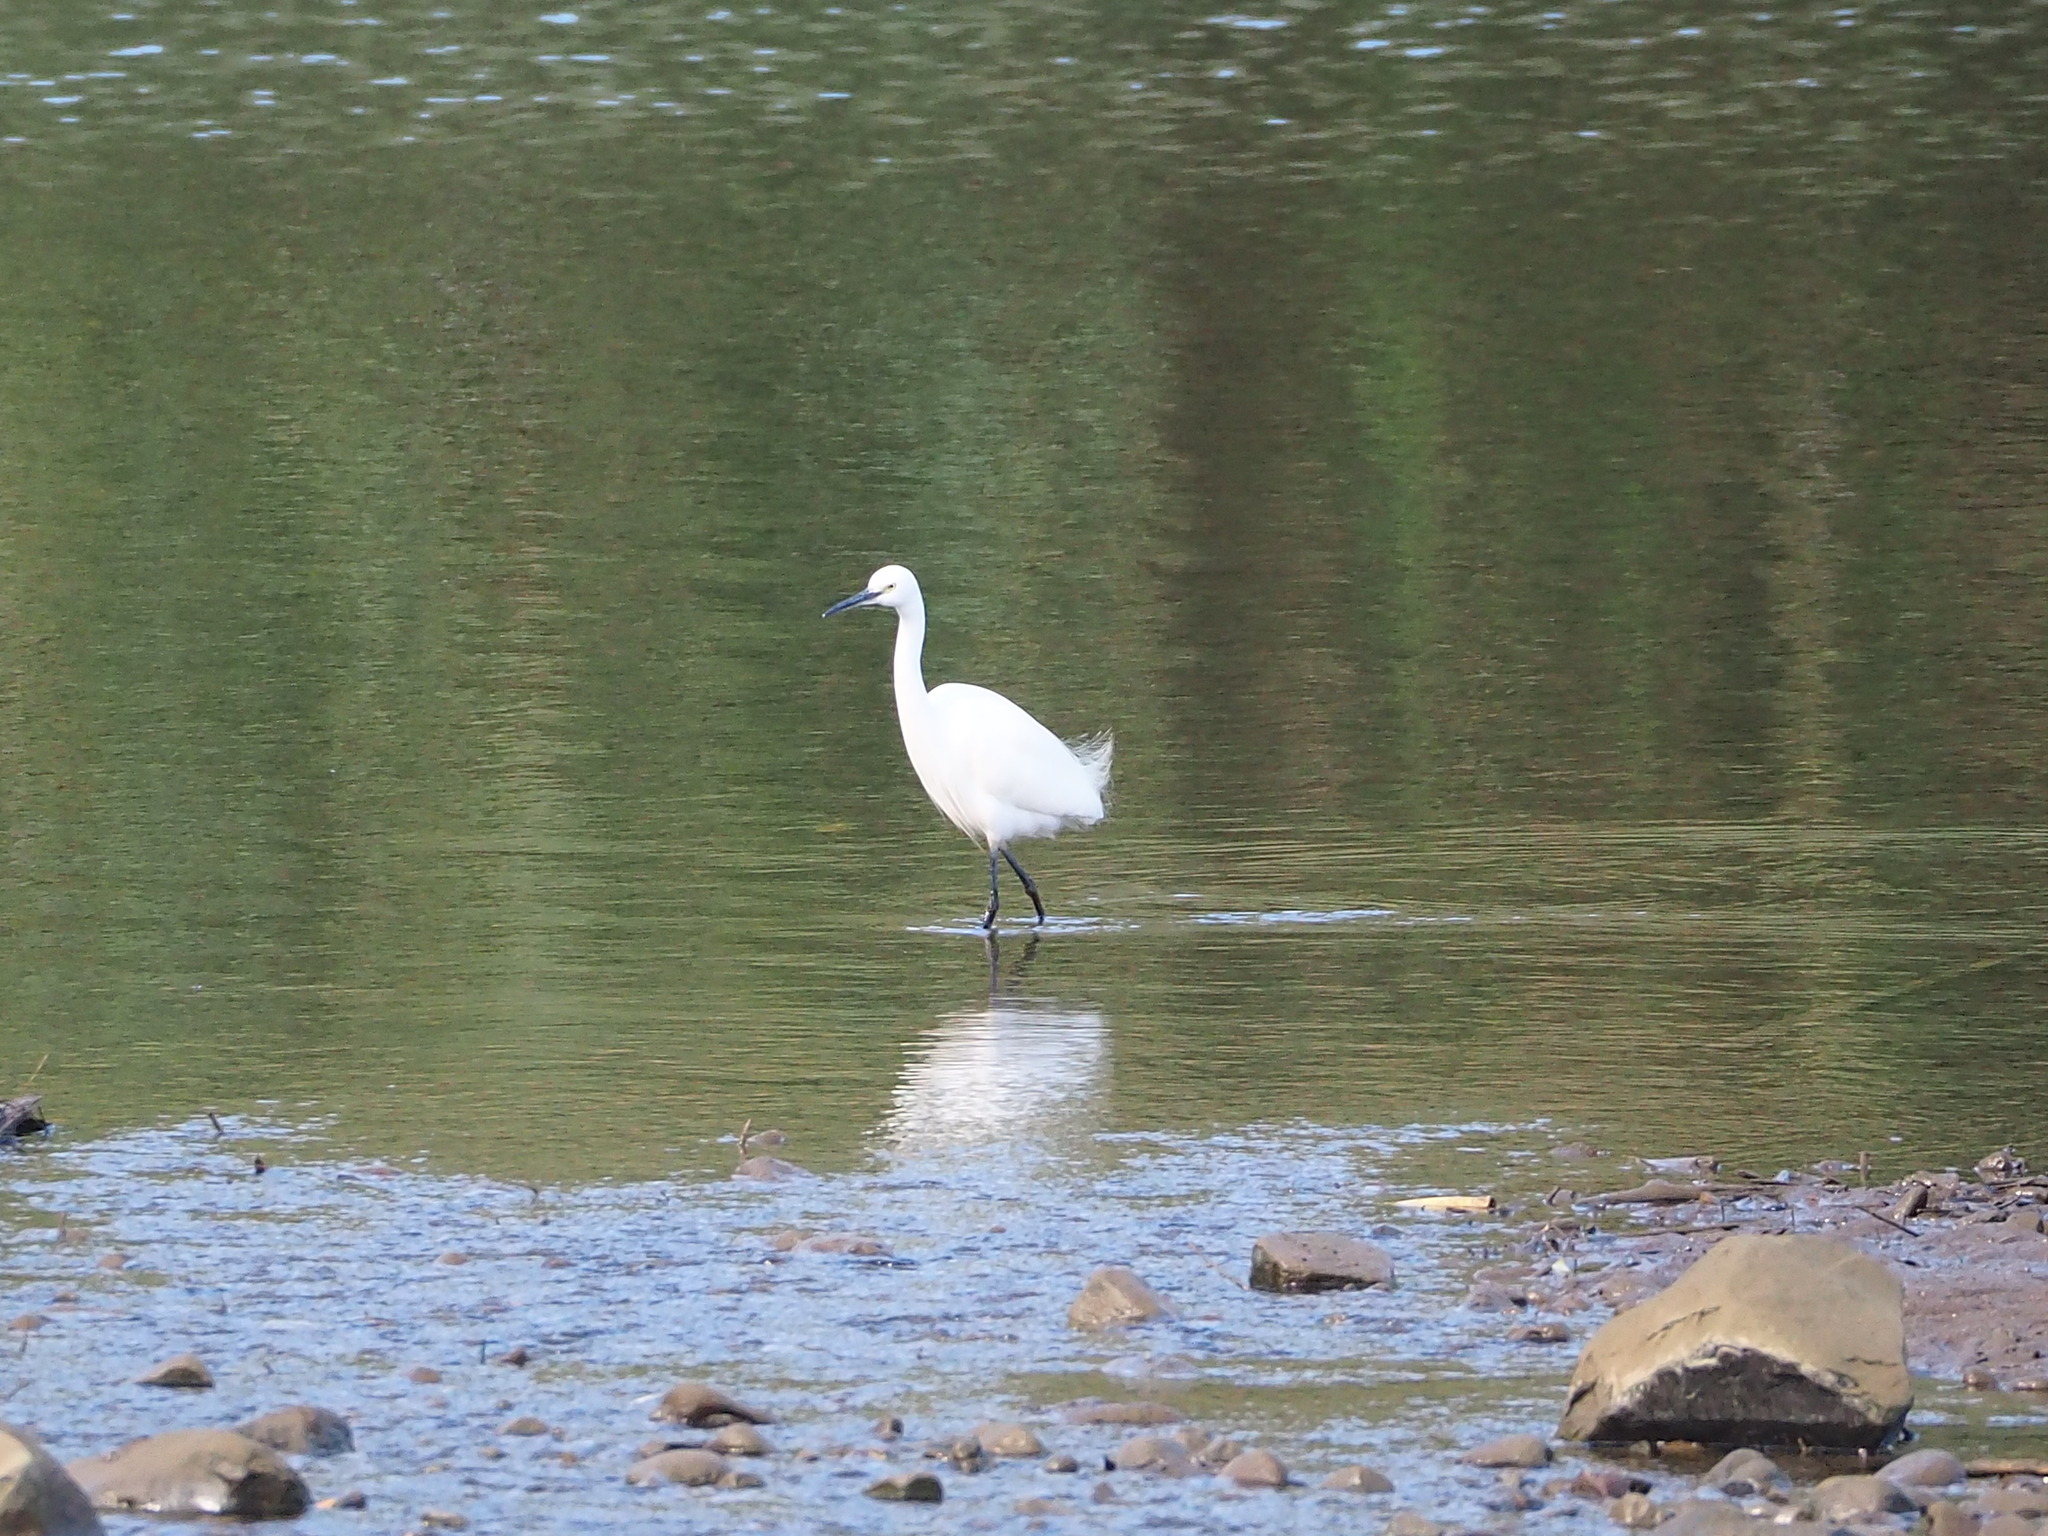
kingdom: Animalia
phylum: Chordata
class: Aves
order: Pelecaniformes
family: Ardeidae
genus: Egretta
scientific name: Egretta garzetta
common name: Little egret
